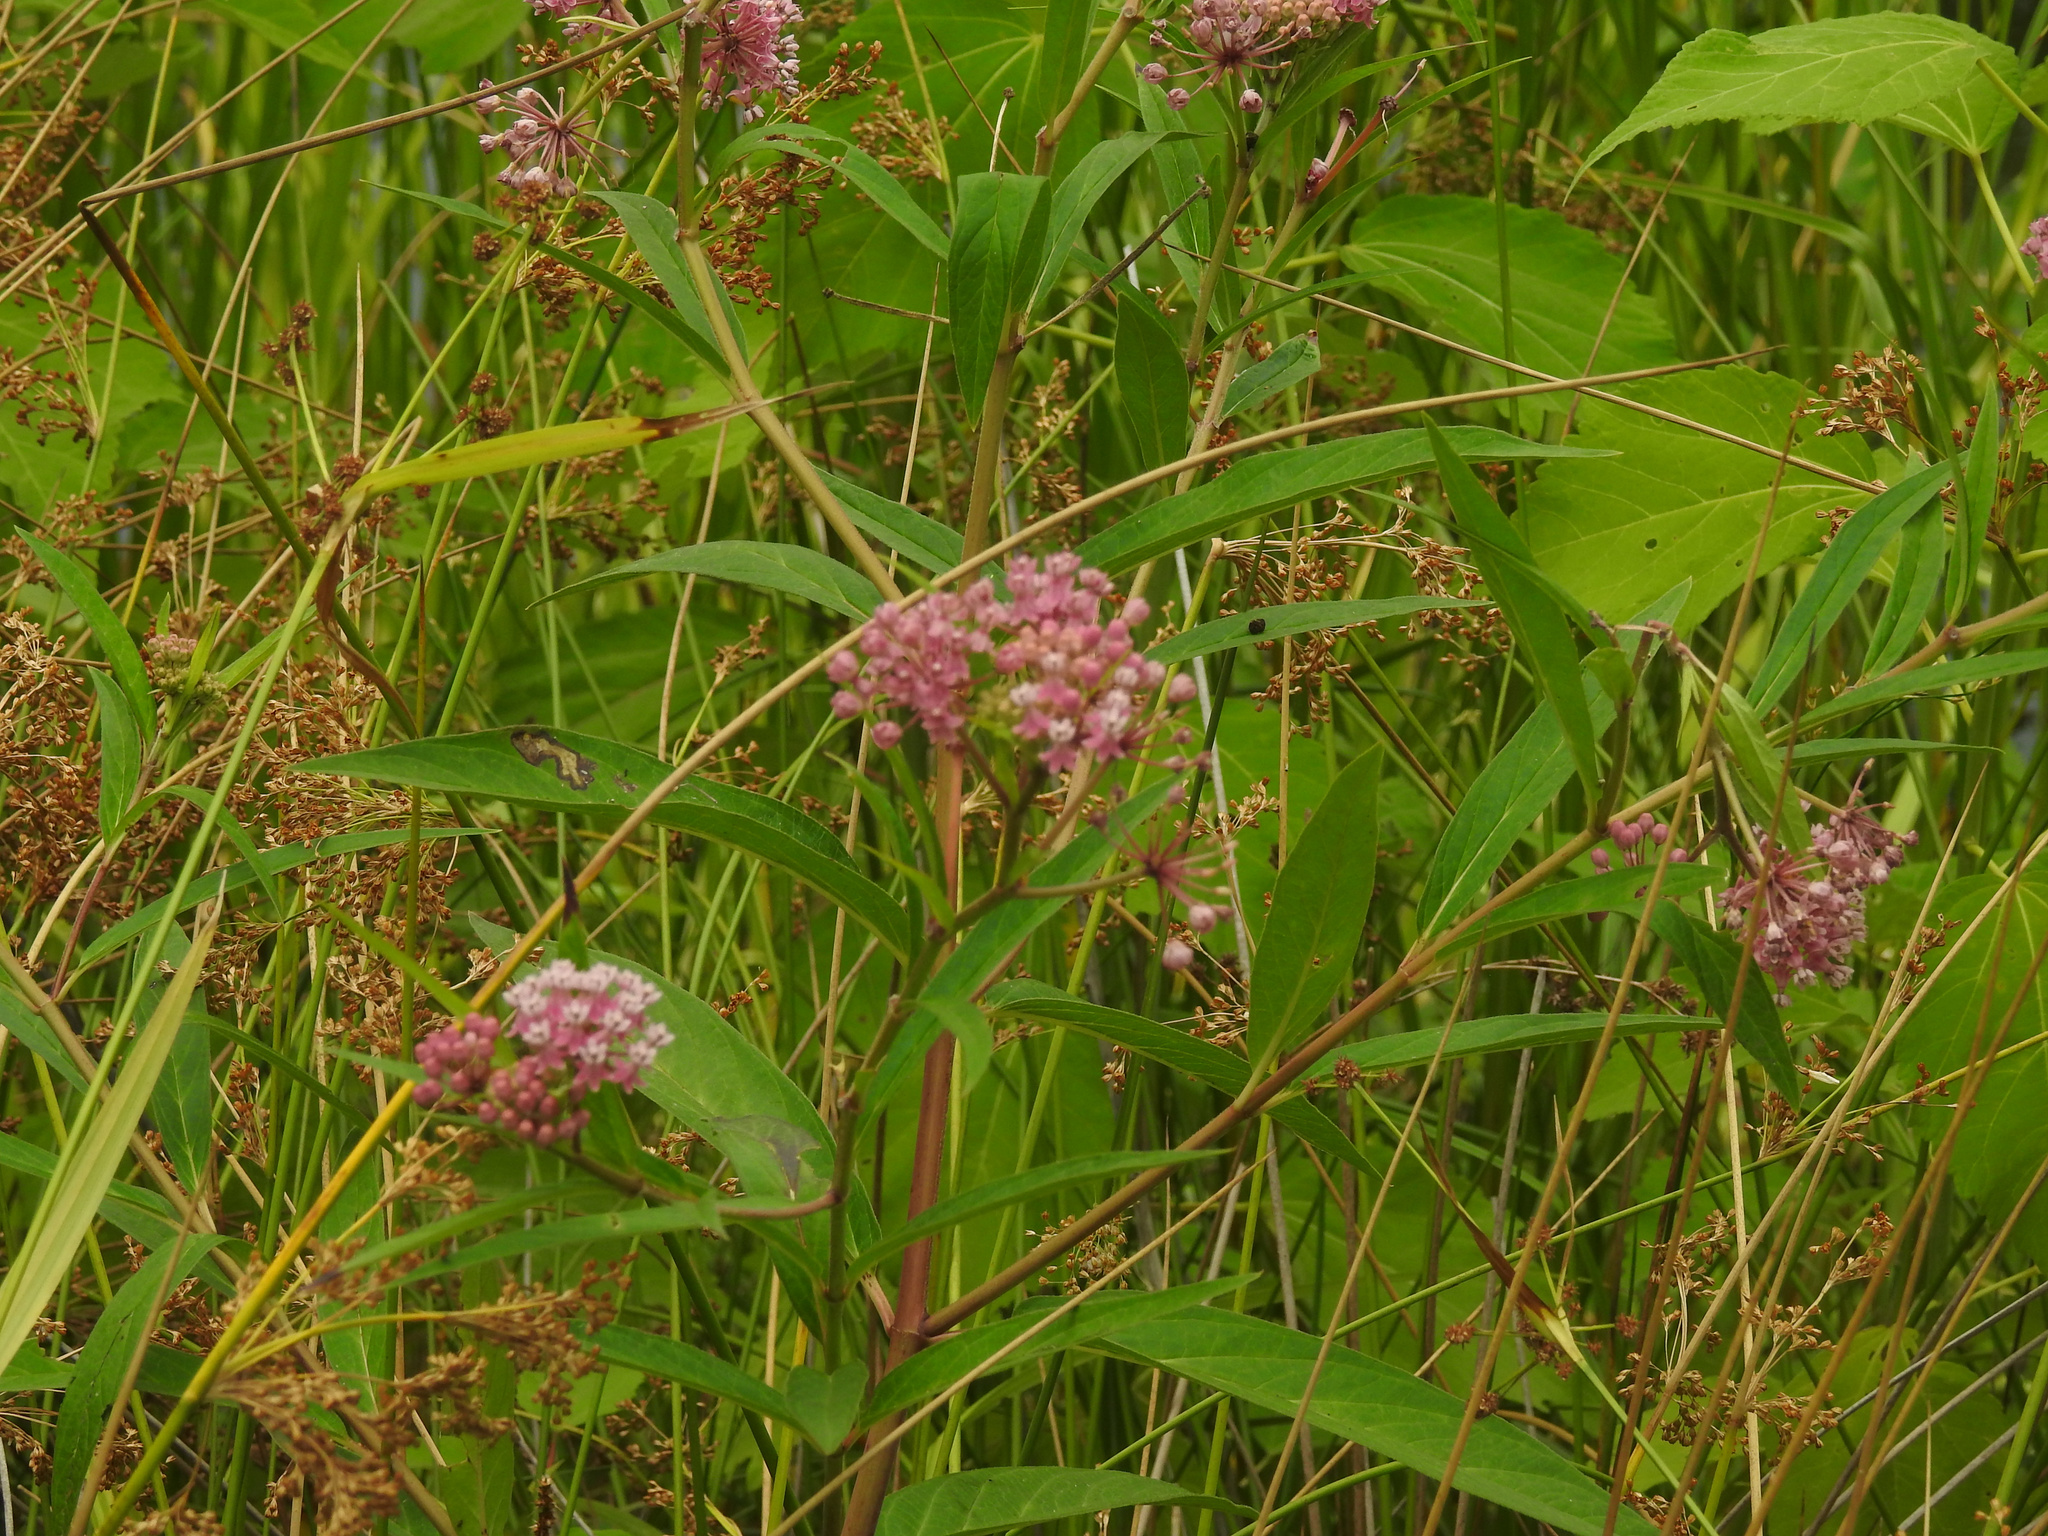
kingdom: Plantae
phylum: Tracheophyta
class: Magnoliopsida
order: Gentianales
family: Apocynaceae
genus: Asclepias
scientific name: Asclepias incarnata
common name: Swamp milkweed
